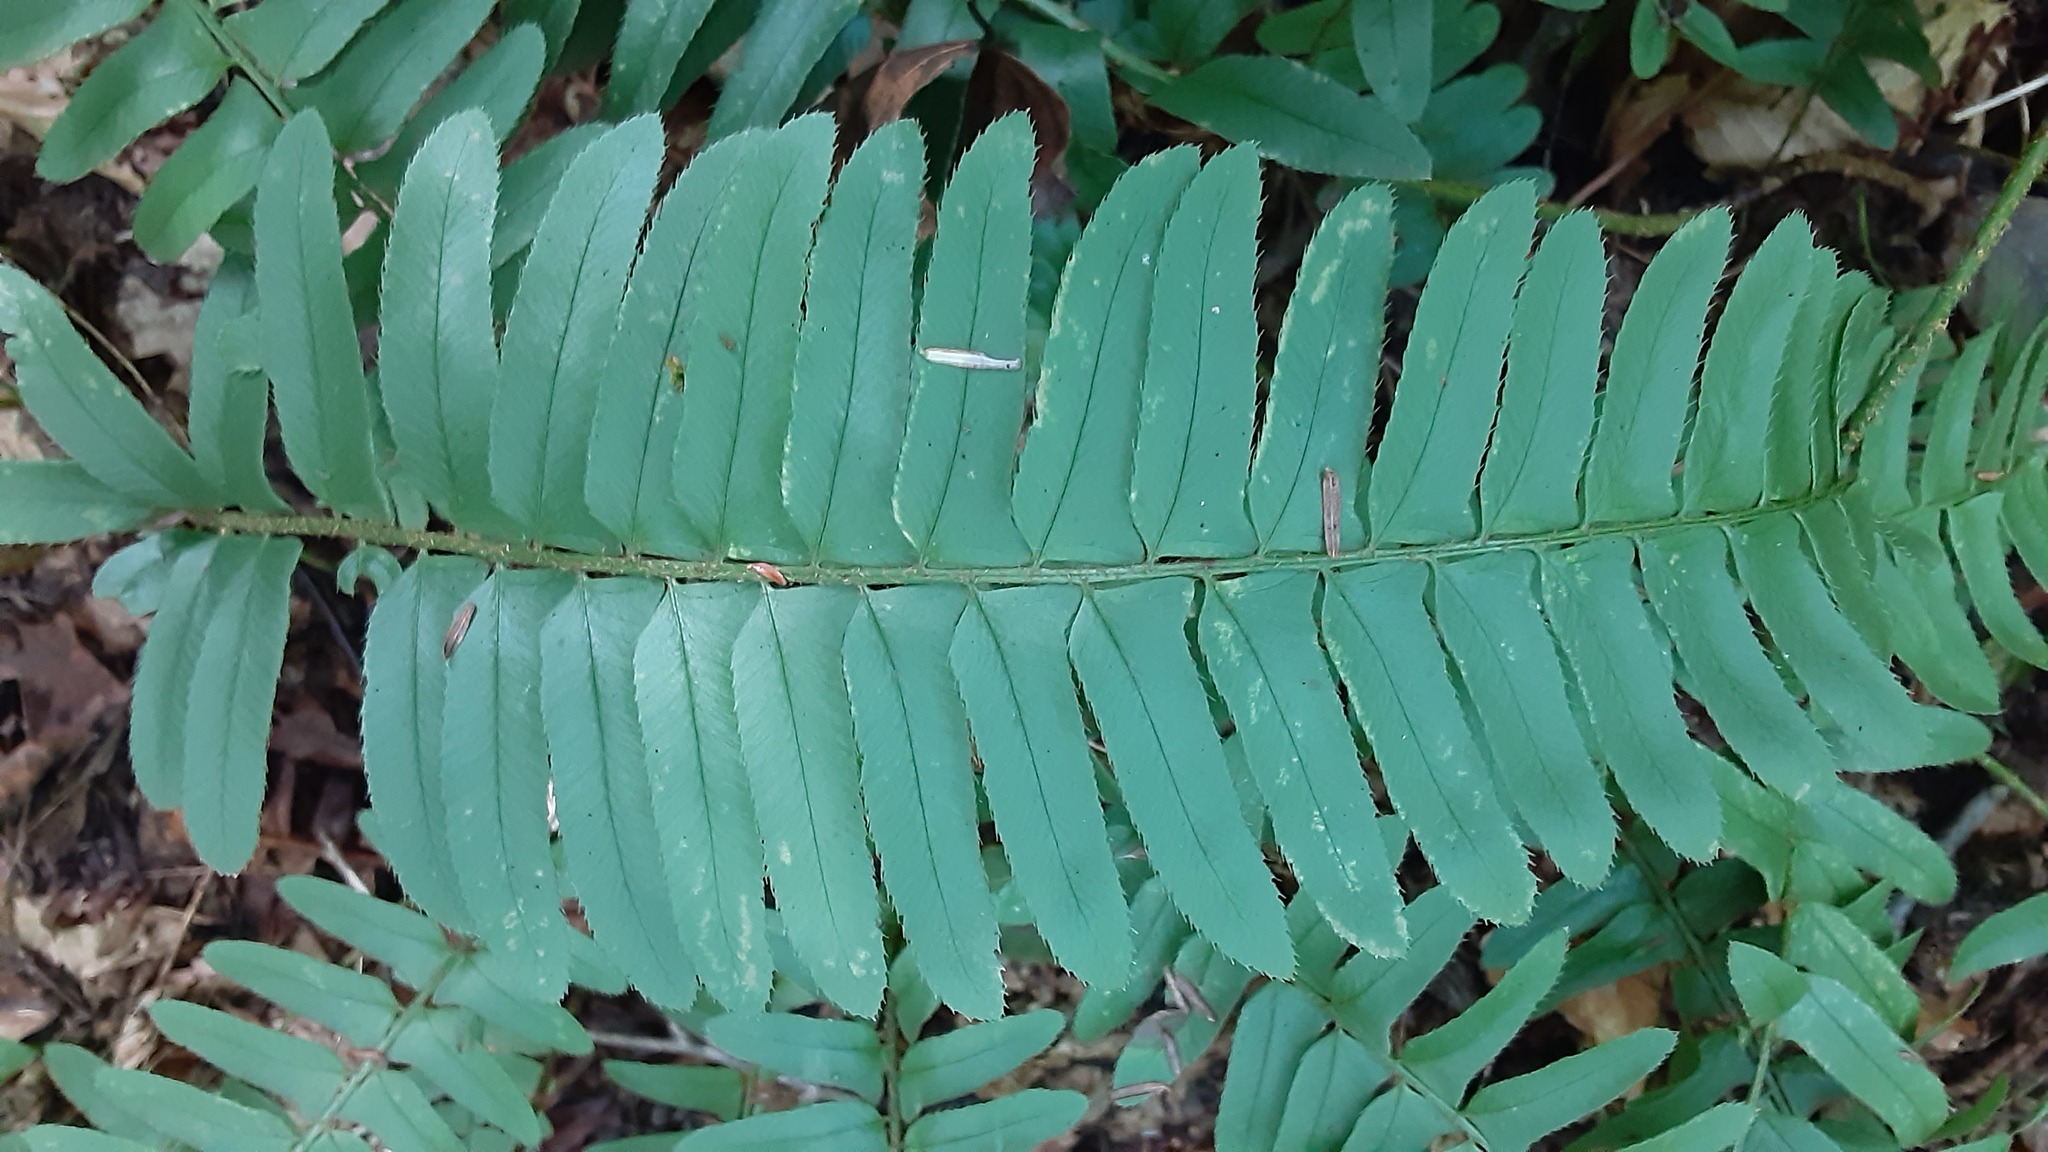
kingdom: Plantae
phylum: Tracheophyta
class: Polypodiopsida
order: Polypodiales
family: Dryopteridaceae
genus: Polystichum
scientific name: Polystichum acrostichoides
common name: Christmas fern
